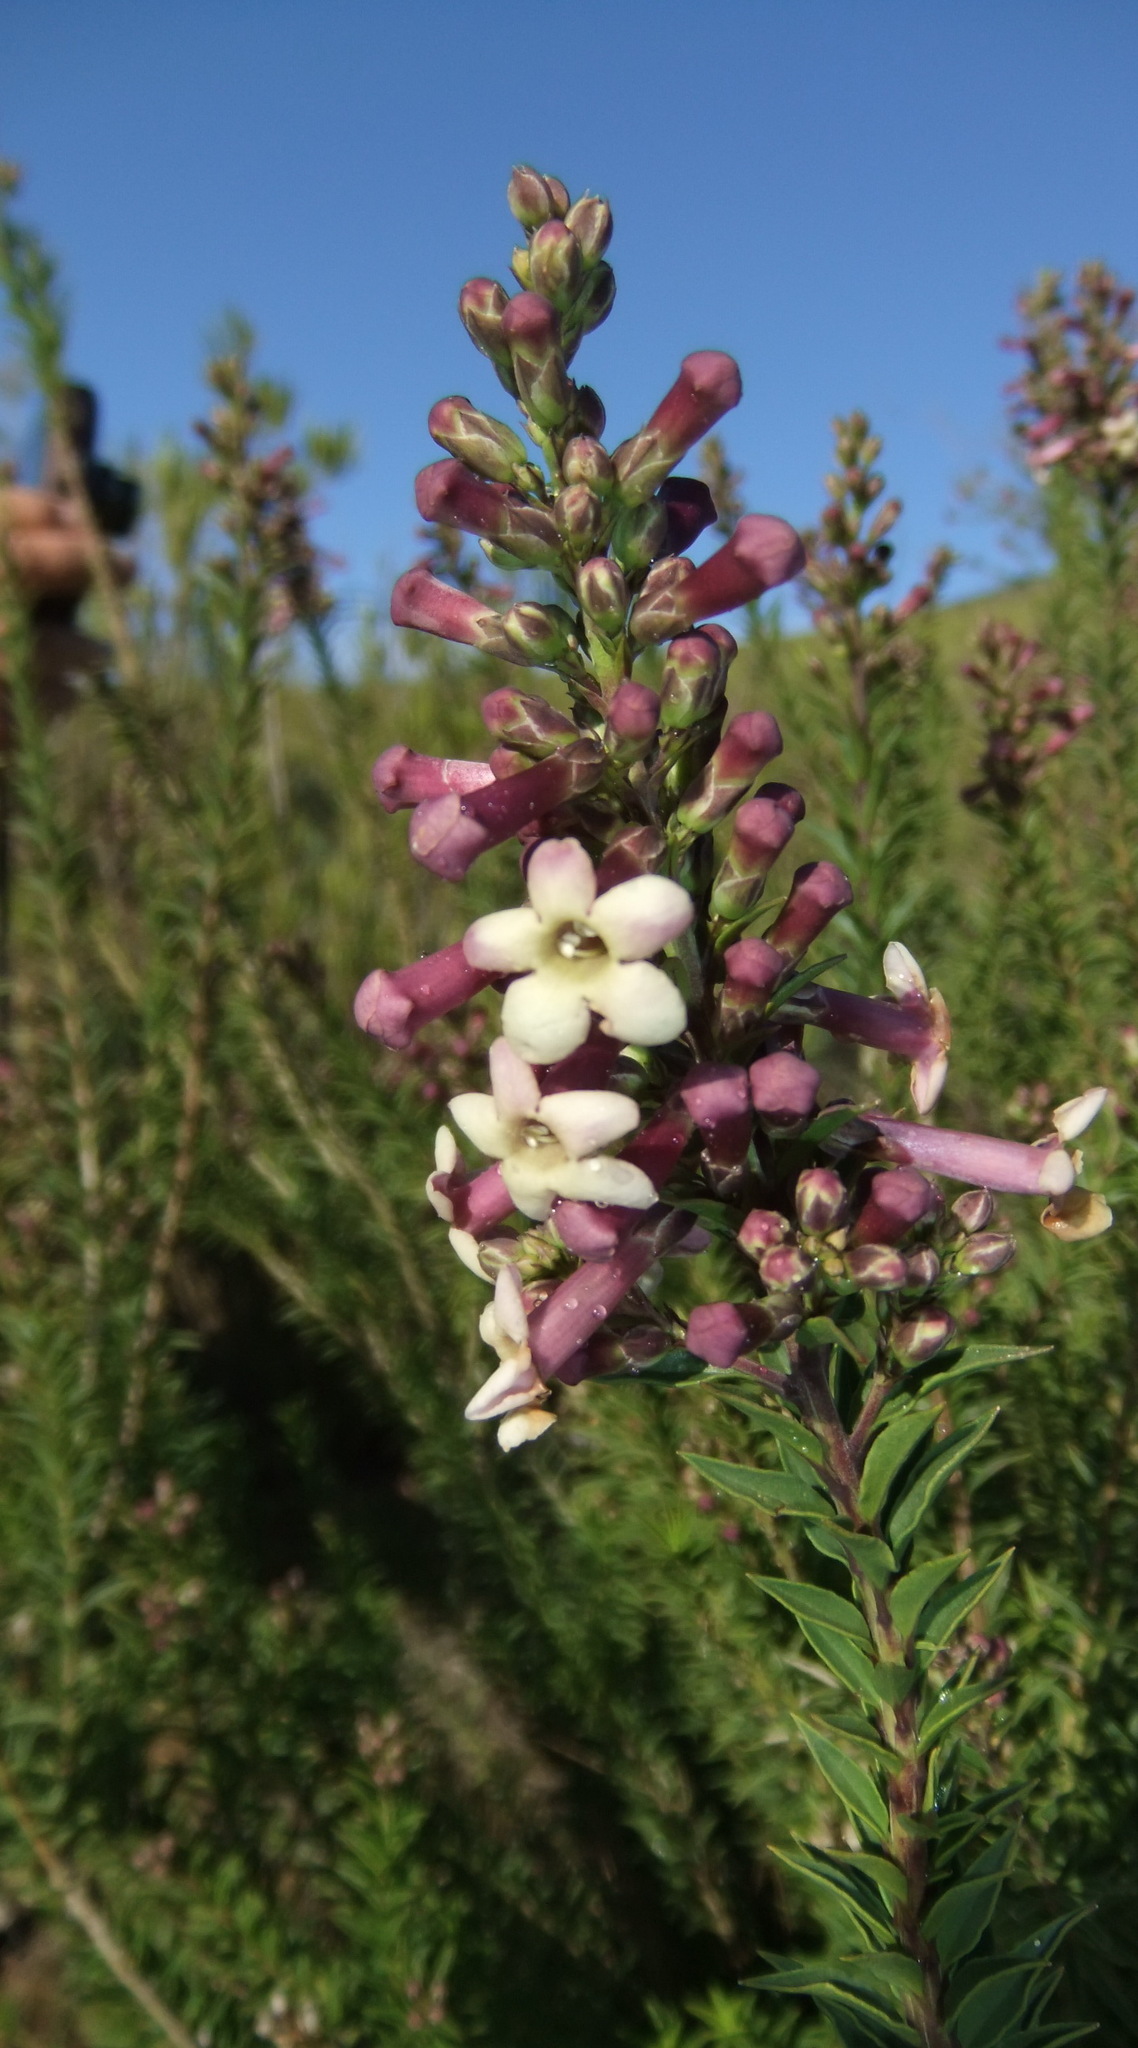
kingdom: Plantae
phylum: Tracheophyta
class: Magnoliopsida
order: Lamiales
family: Scrophulariaceae
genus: Freylinia
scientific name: Freylinia densiflora
